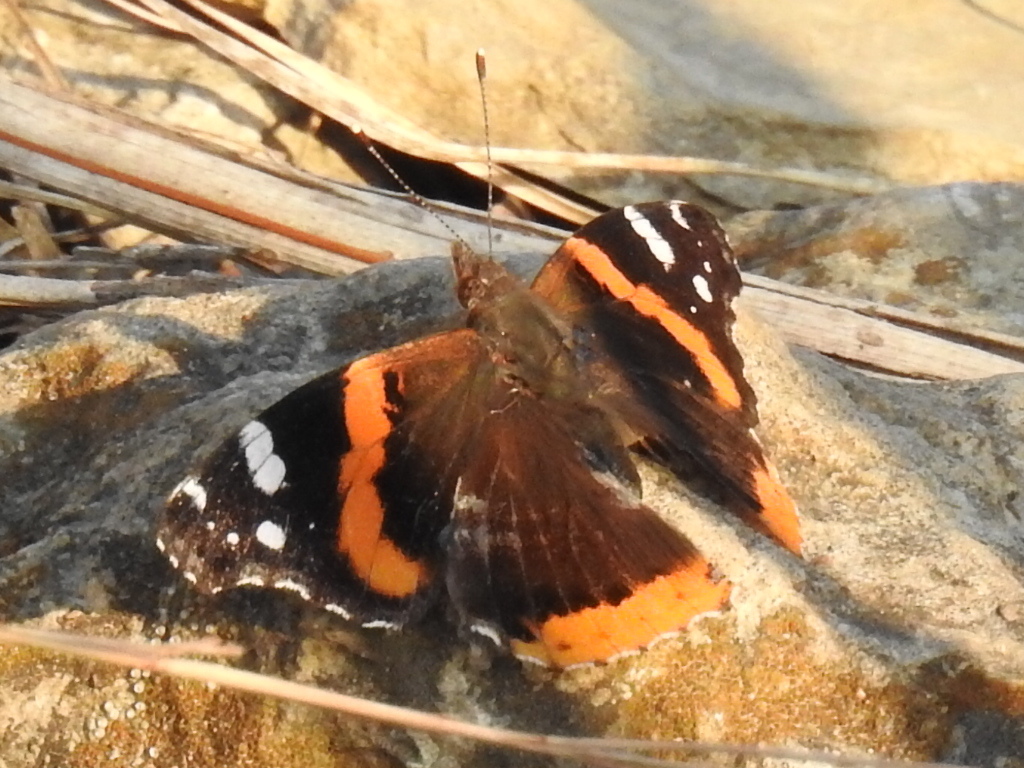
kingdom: Animalia
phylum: Arthropoda
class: Insecta
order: Lepidoptera
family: Nymphalidae
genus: Vanessa
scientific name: Vanessa atalanta
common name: Red admiral
